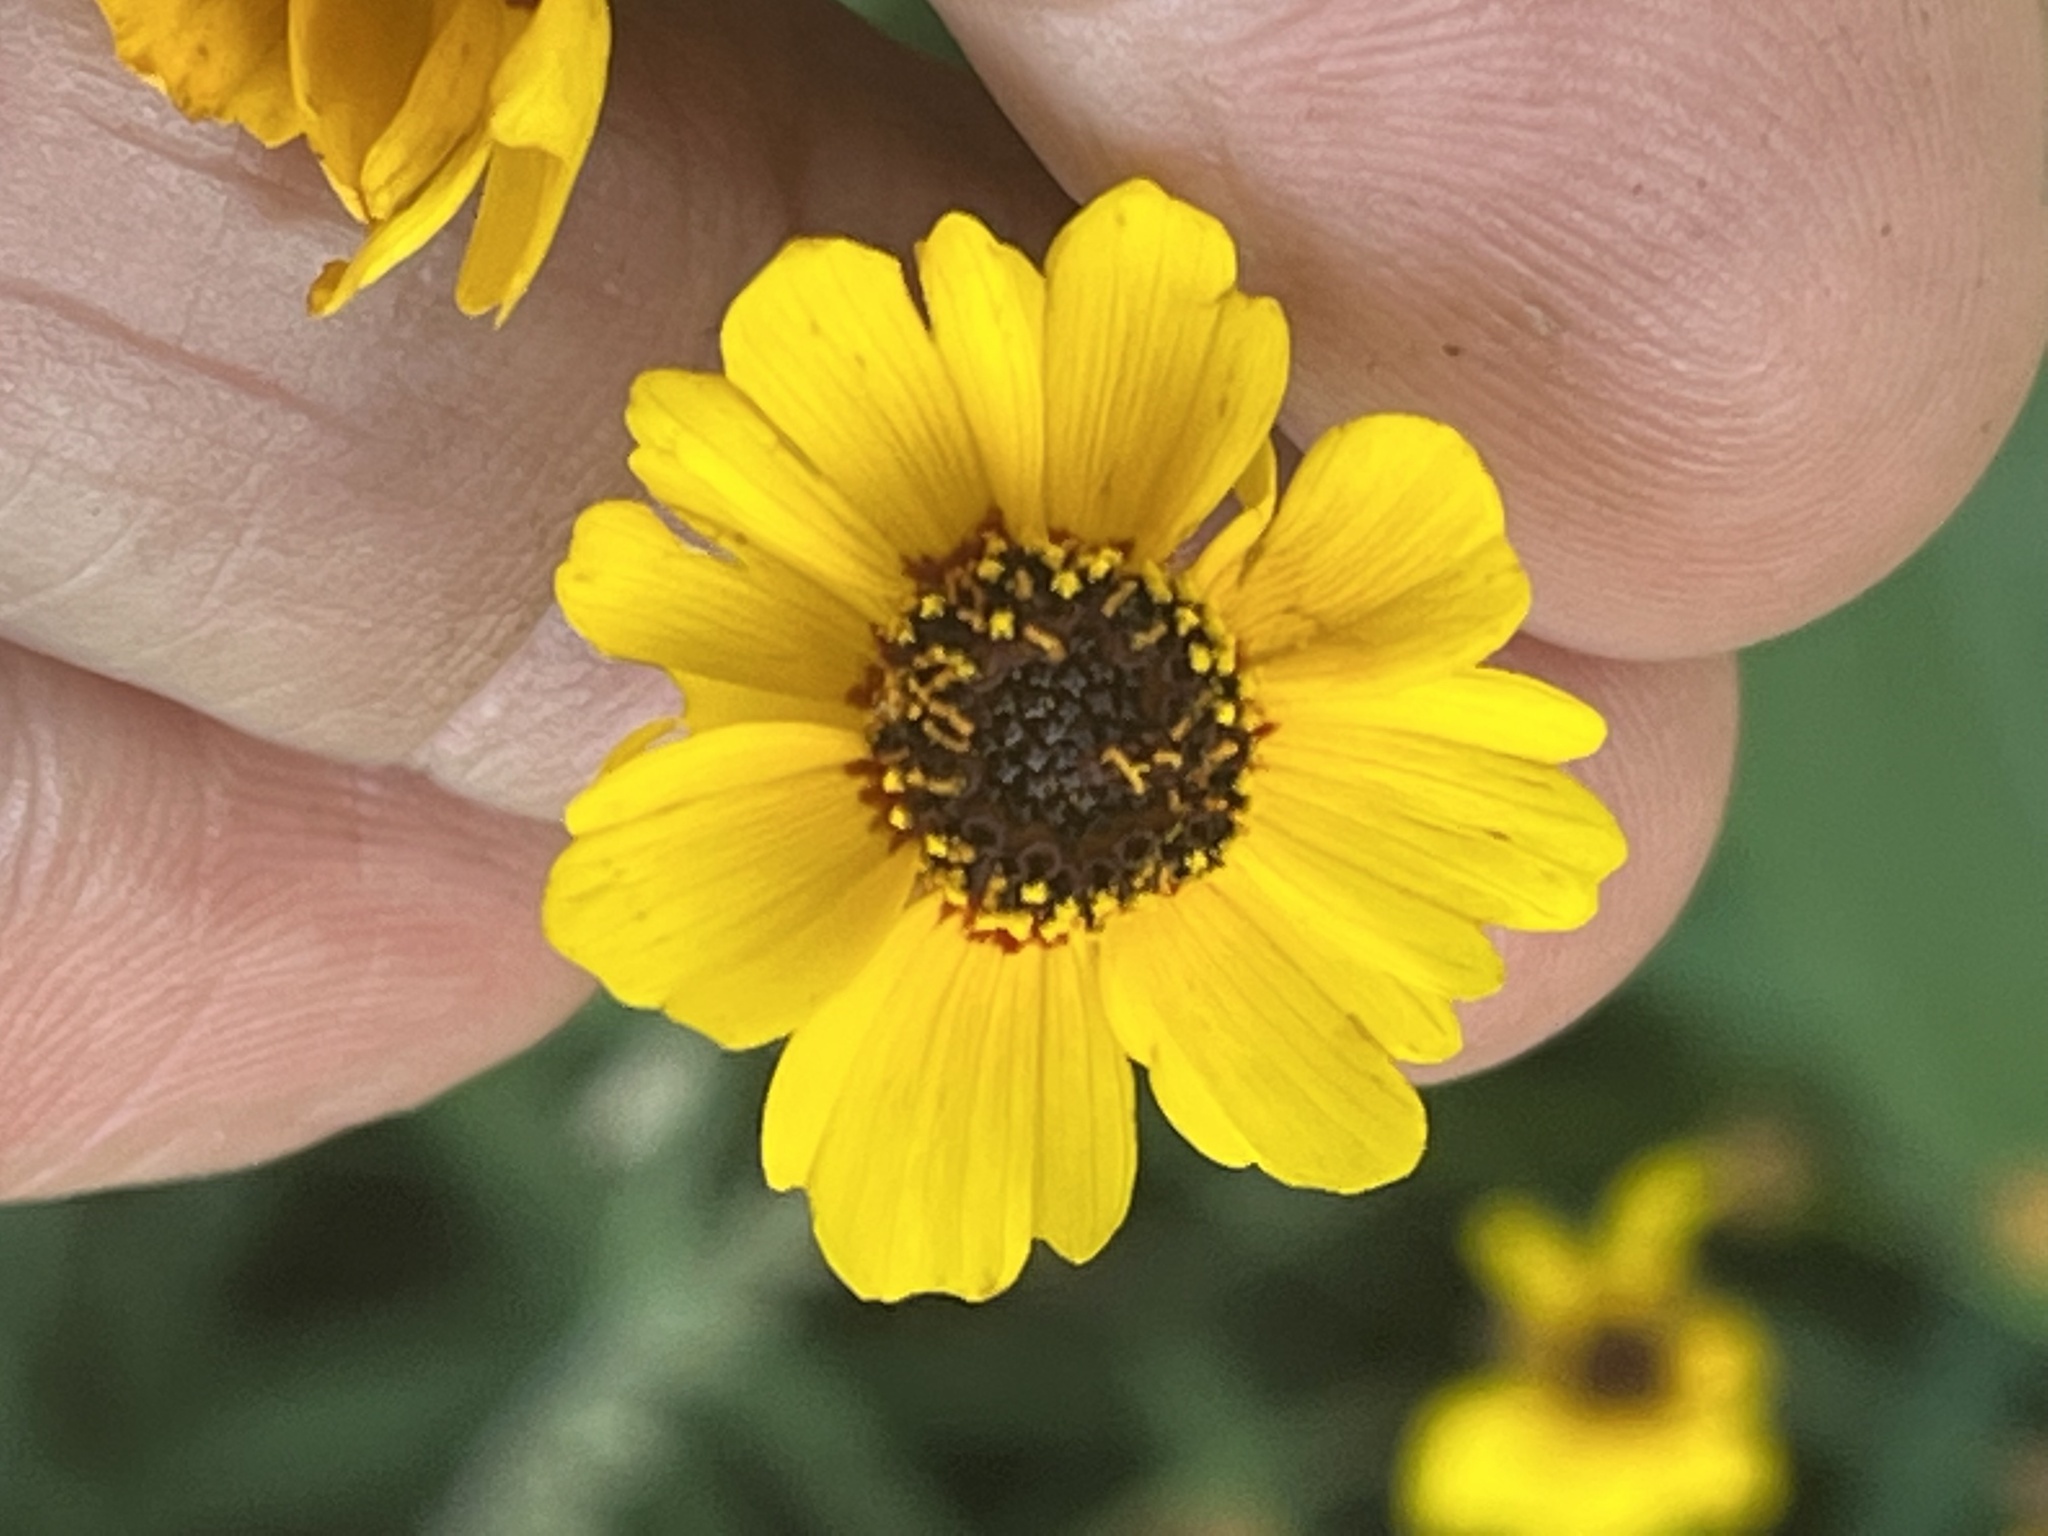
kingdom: Plantae
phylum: Tracheophyta
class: Magnoliopsida
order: Asterales
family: Asteraceae
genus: Coreopsis
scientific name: Coreopsis tinctoria
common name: Garden tickseed
